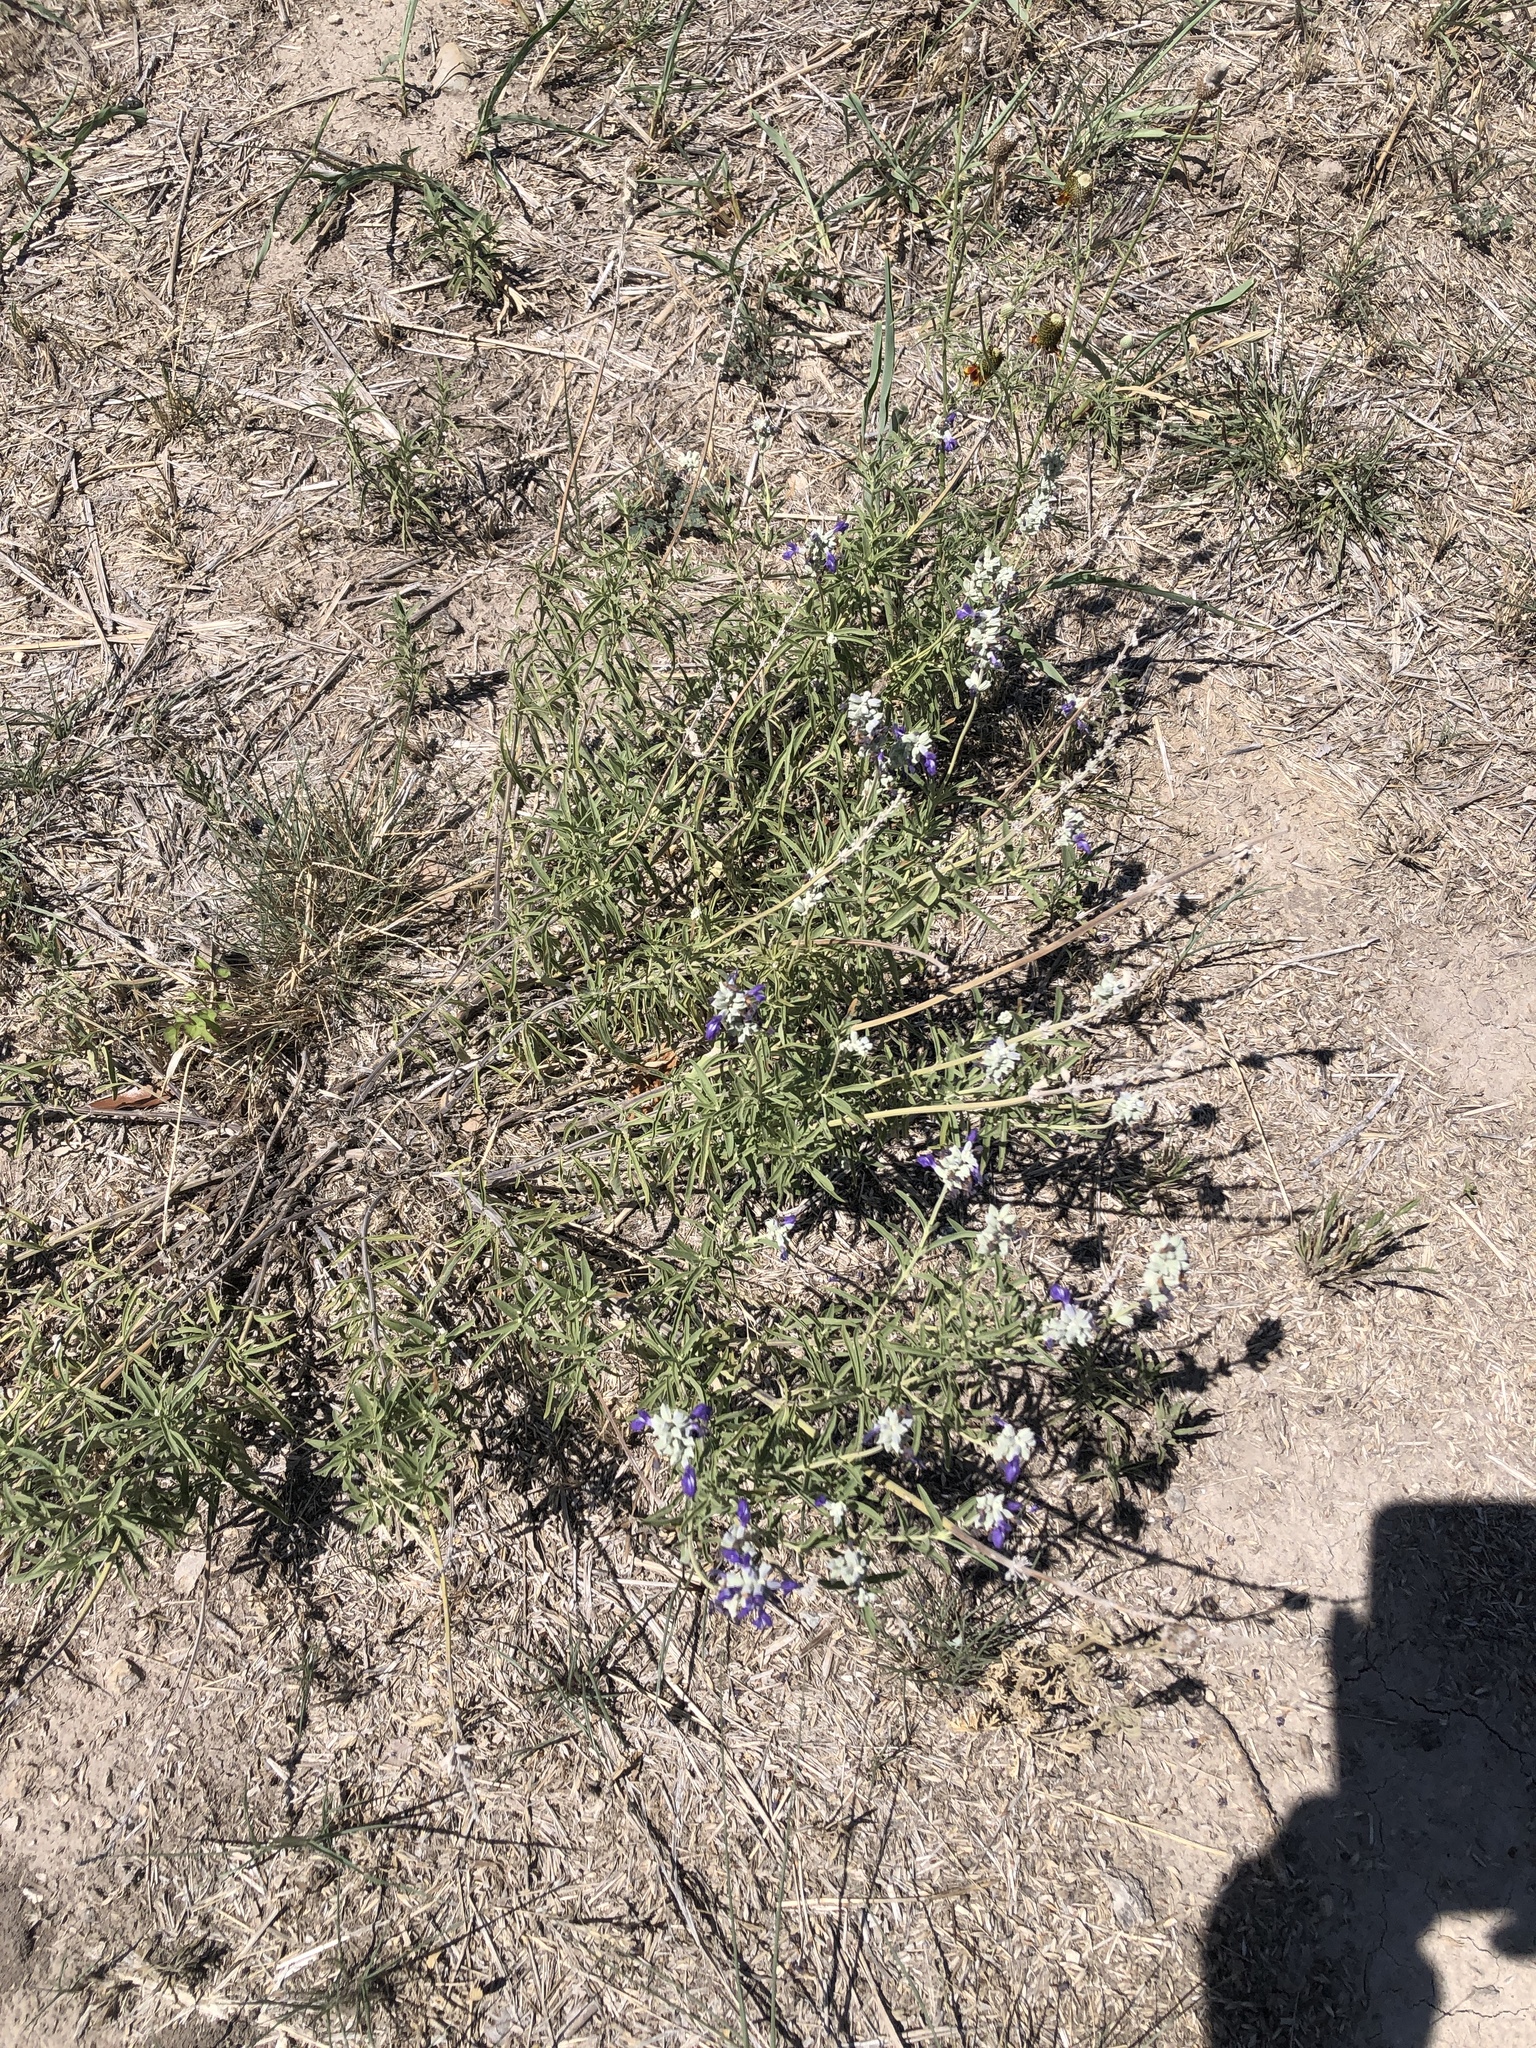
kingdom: Plantae
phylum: Tracheophyta
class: Magnoliopsida
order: Lamiales
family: Lamiaceae
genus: Salvia
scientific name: Salvia farinacea
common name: Mealy sage
